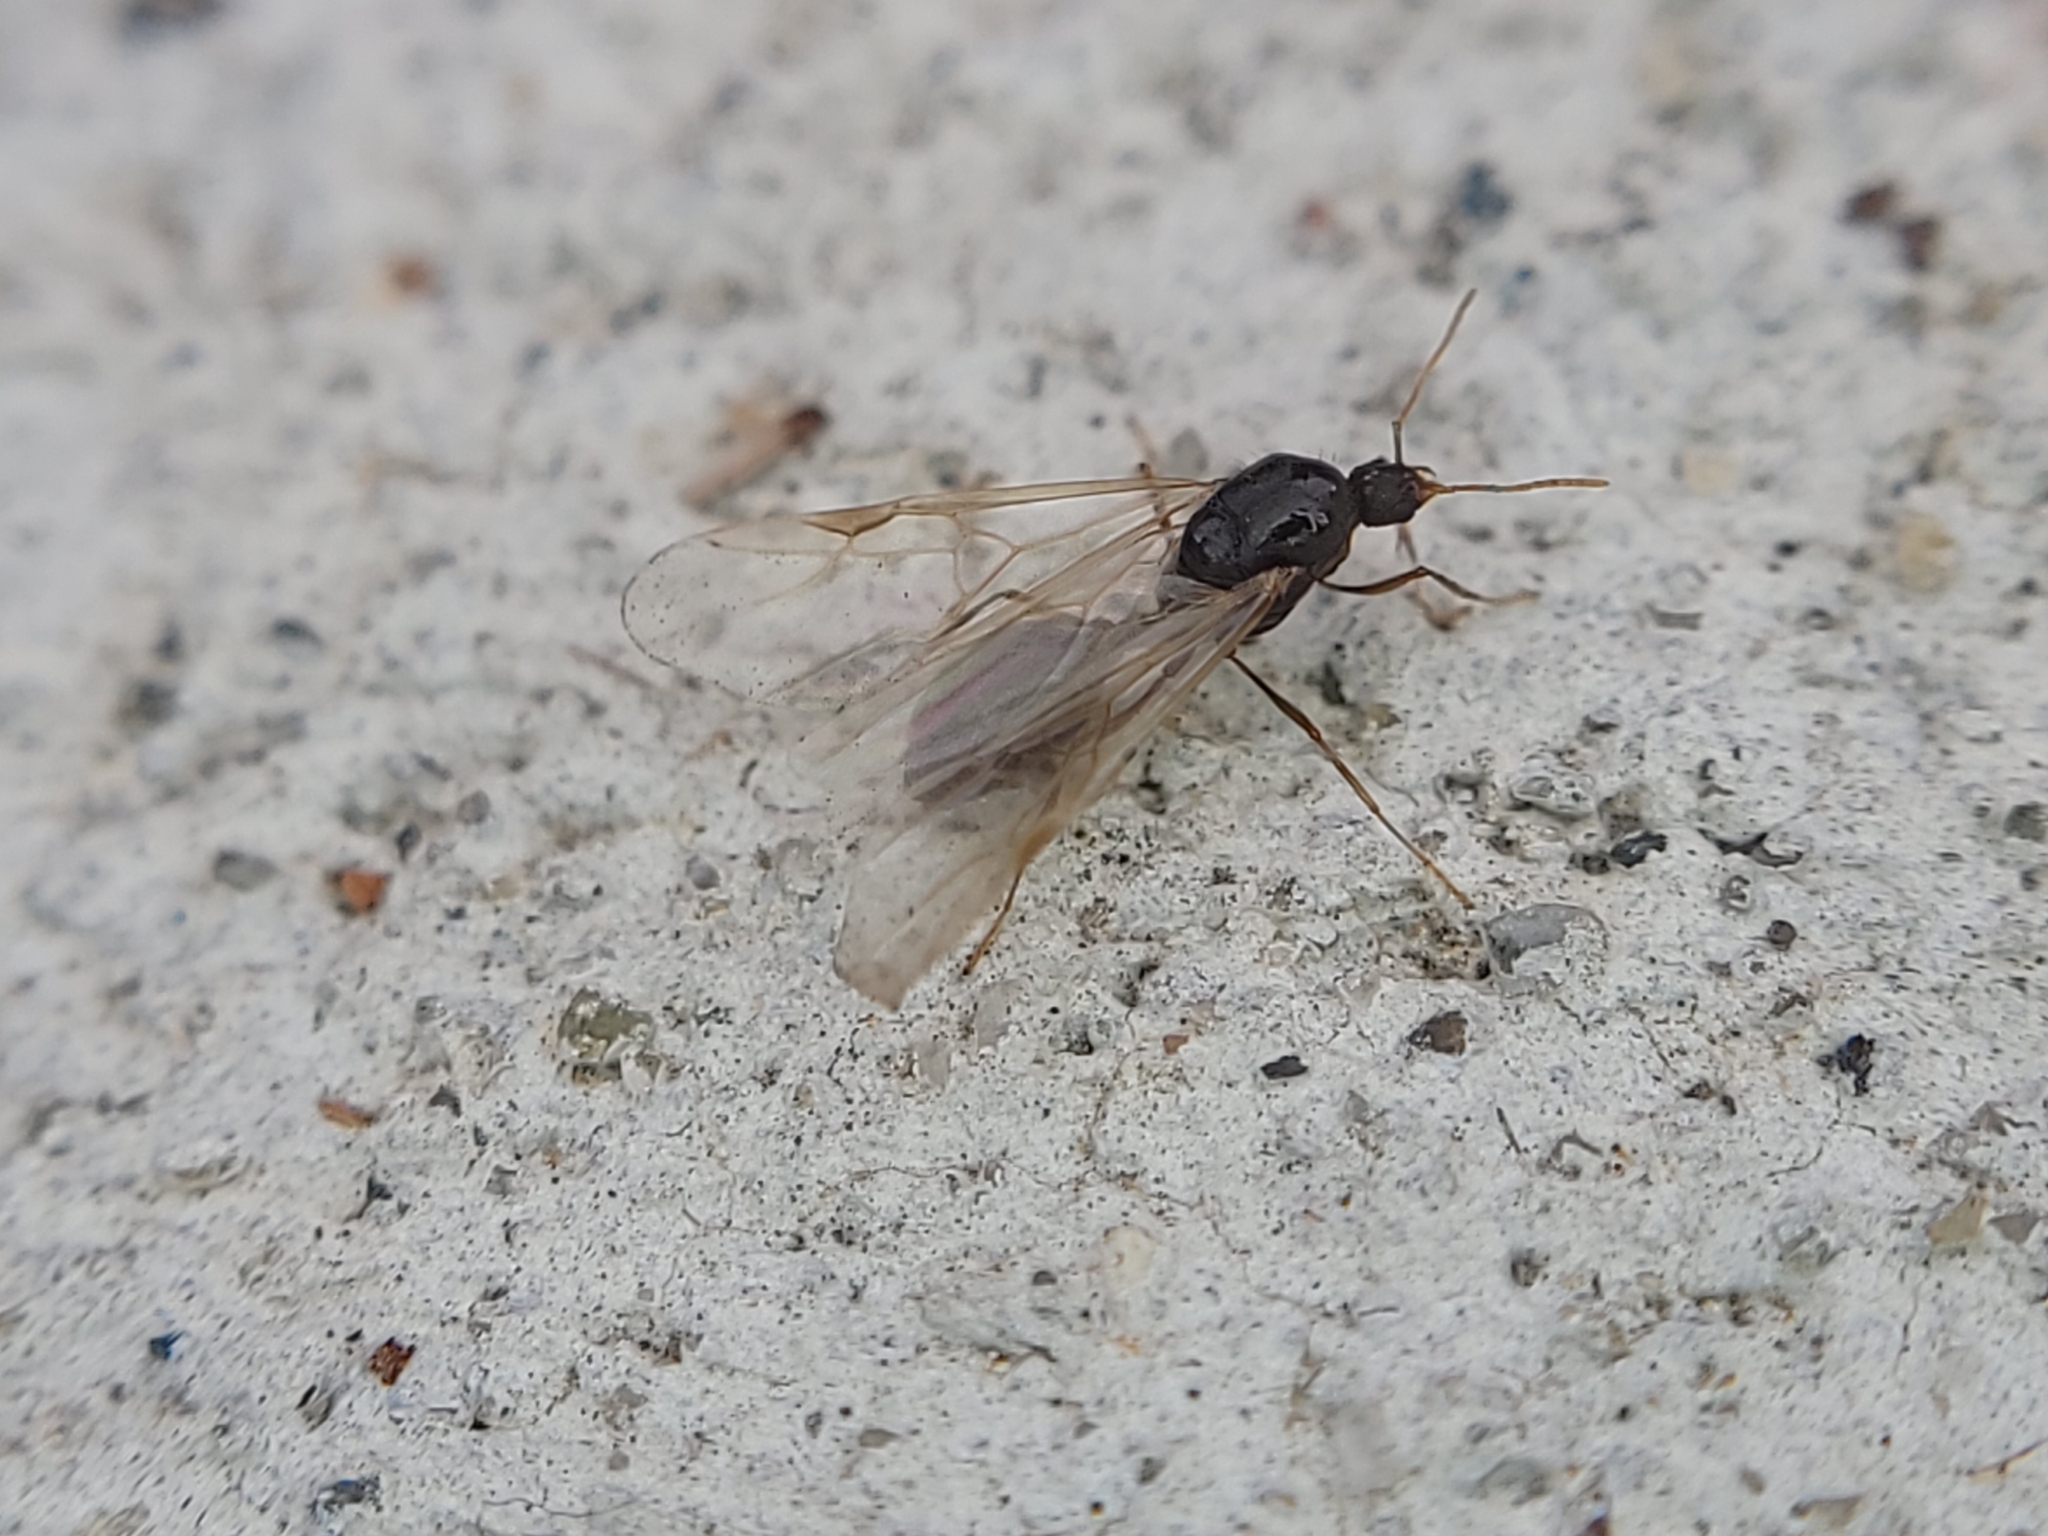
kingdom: Animalia
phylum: Arthropoda
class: Insecta
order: Hymenoptera
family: Formicidae
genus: Tetramorium
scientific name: Tetramorium immigrans
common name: Pavement ant
